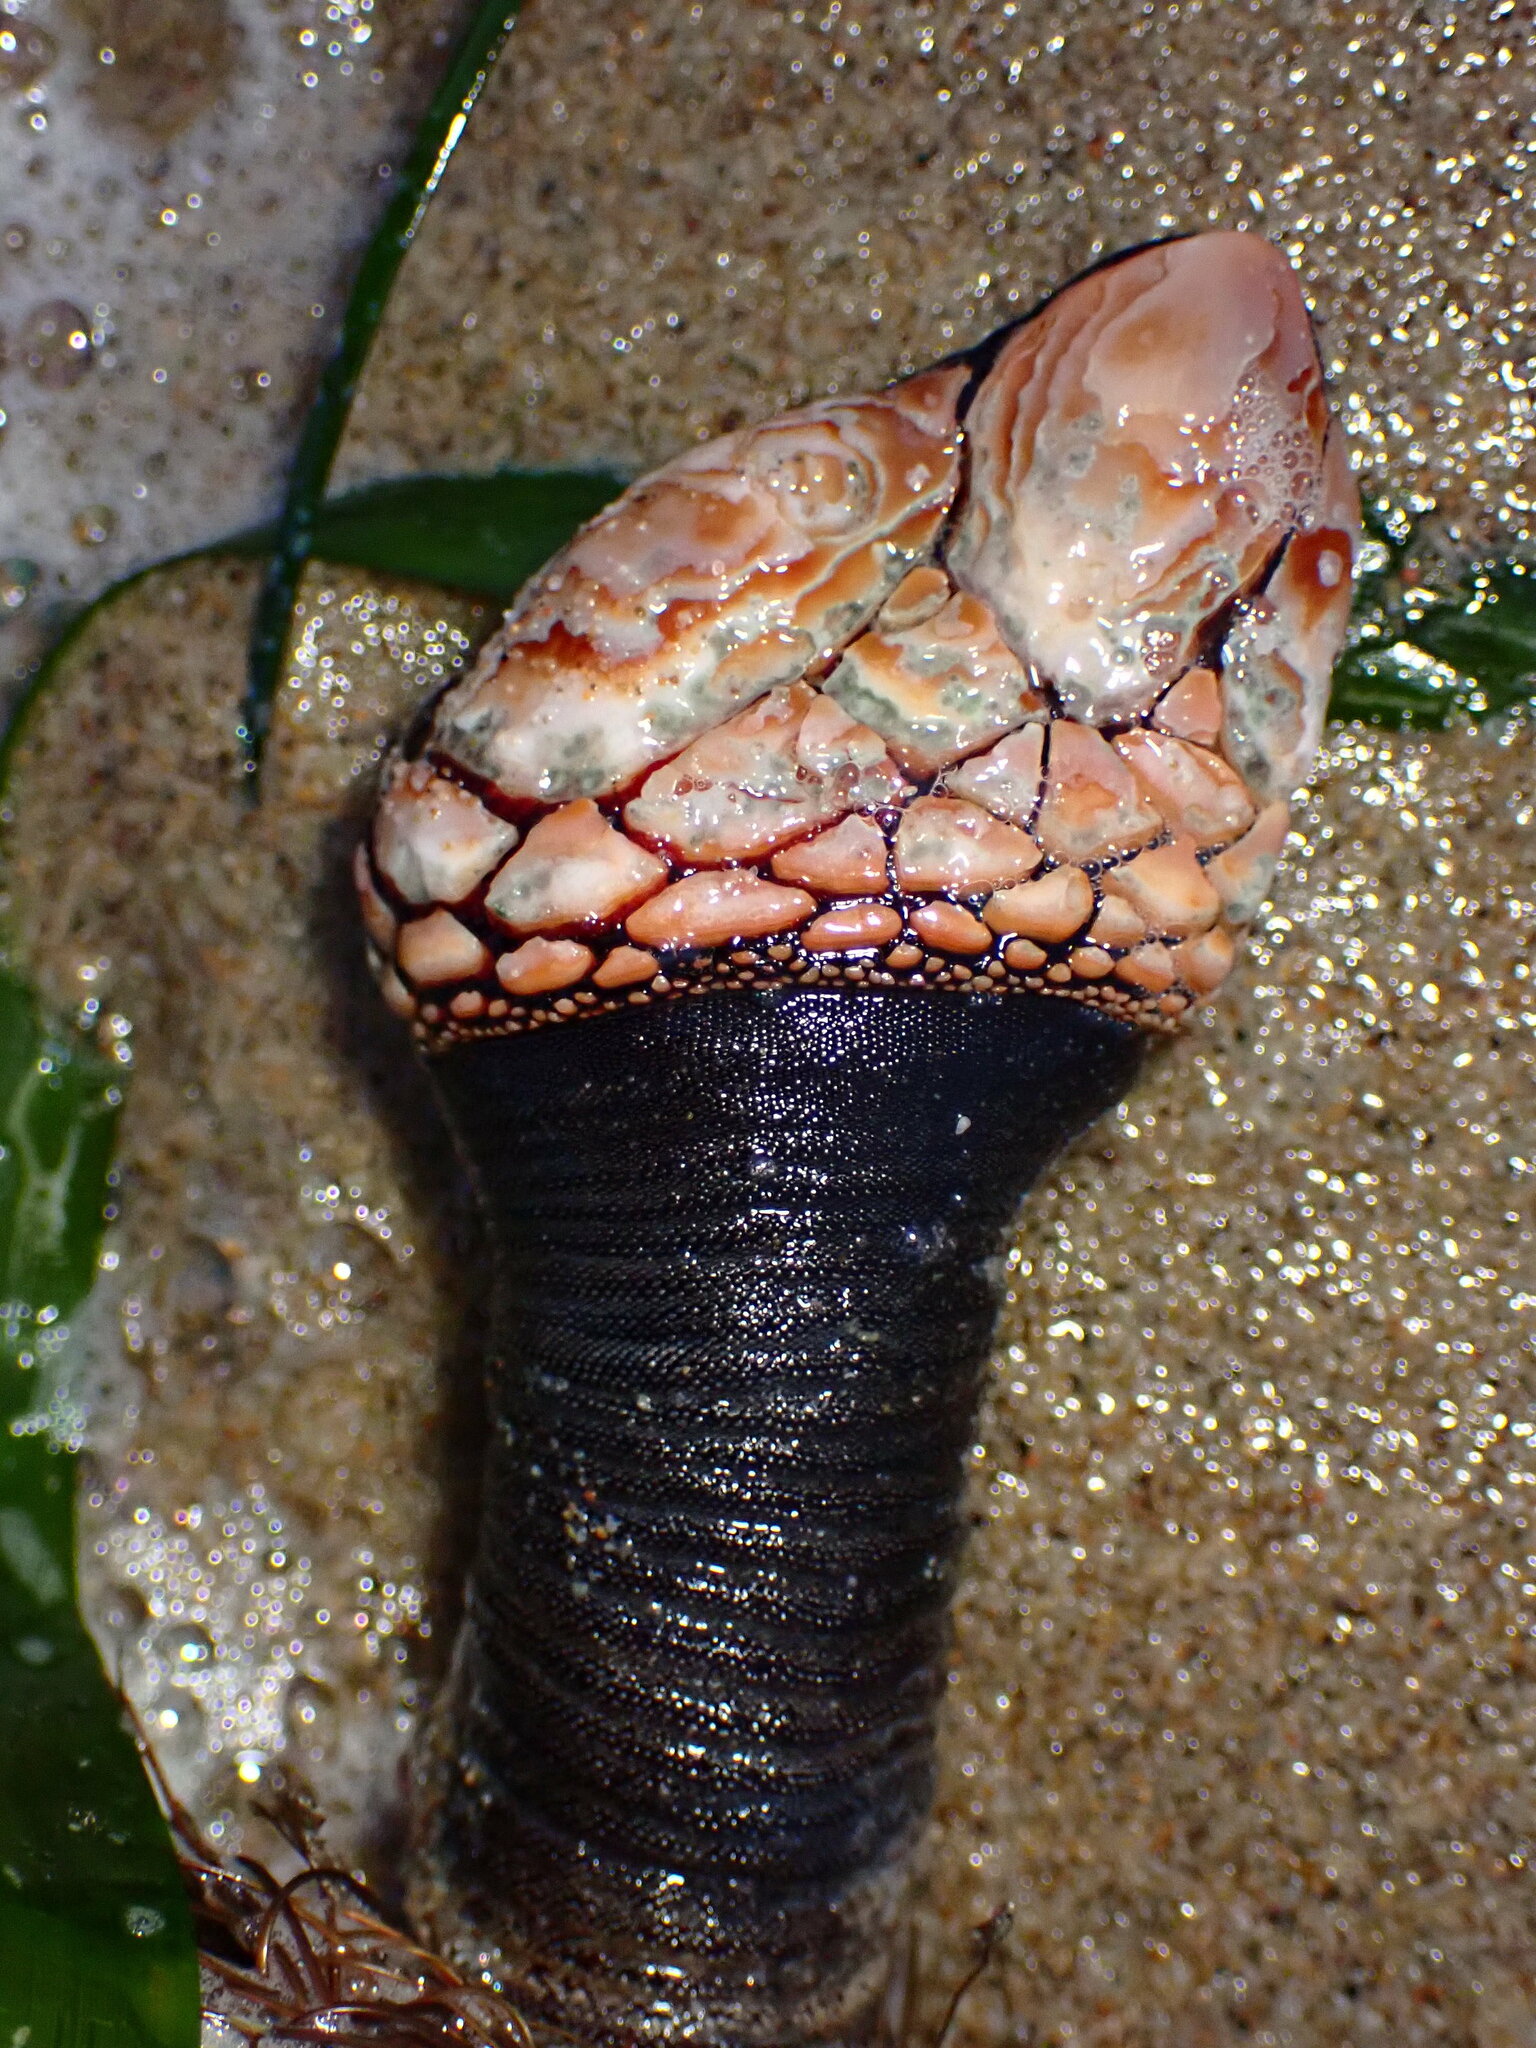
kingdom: Animalia
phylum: Arthropoda
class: Maxillopoda
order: Pedunculata
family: Pollicipedidae
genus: Pollicipes
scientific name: Pollicipes polymerus
